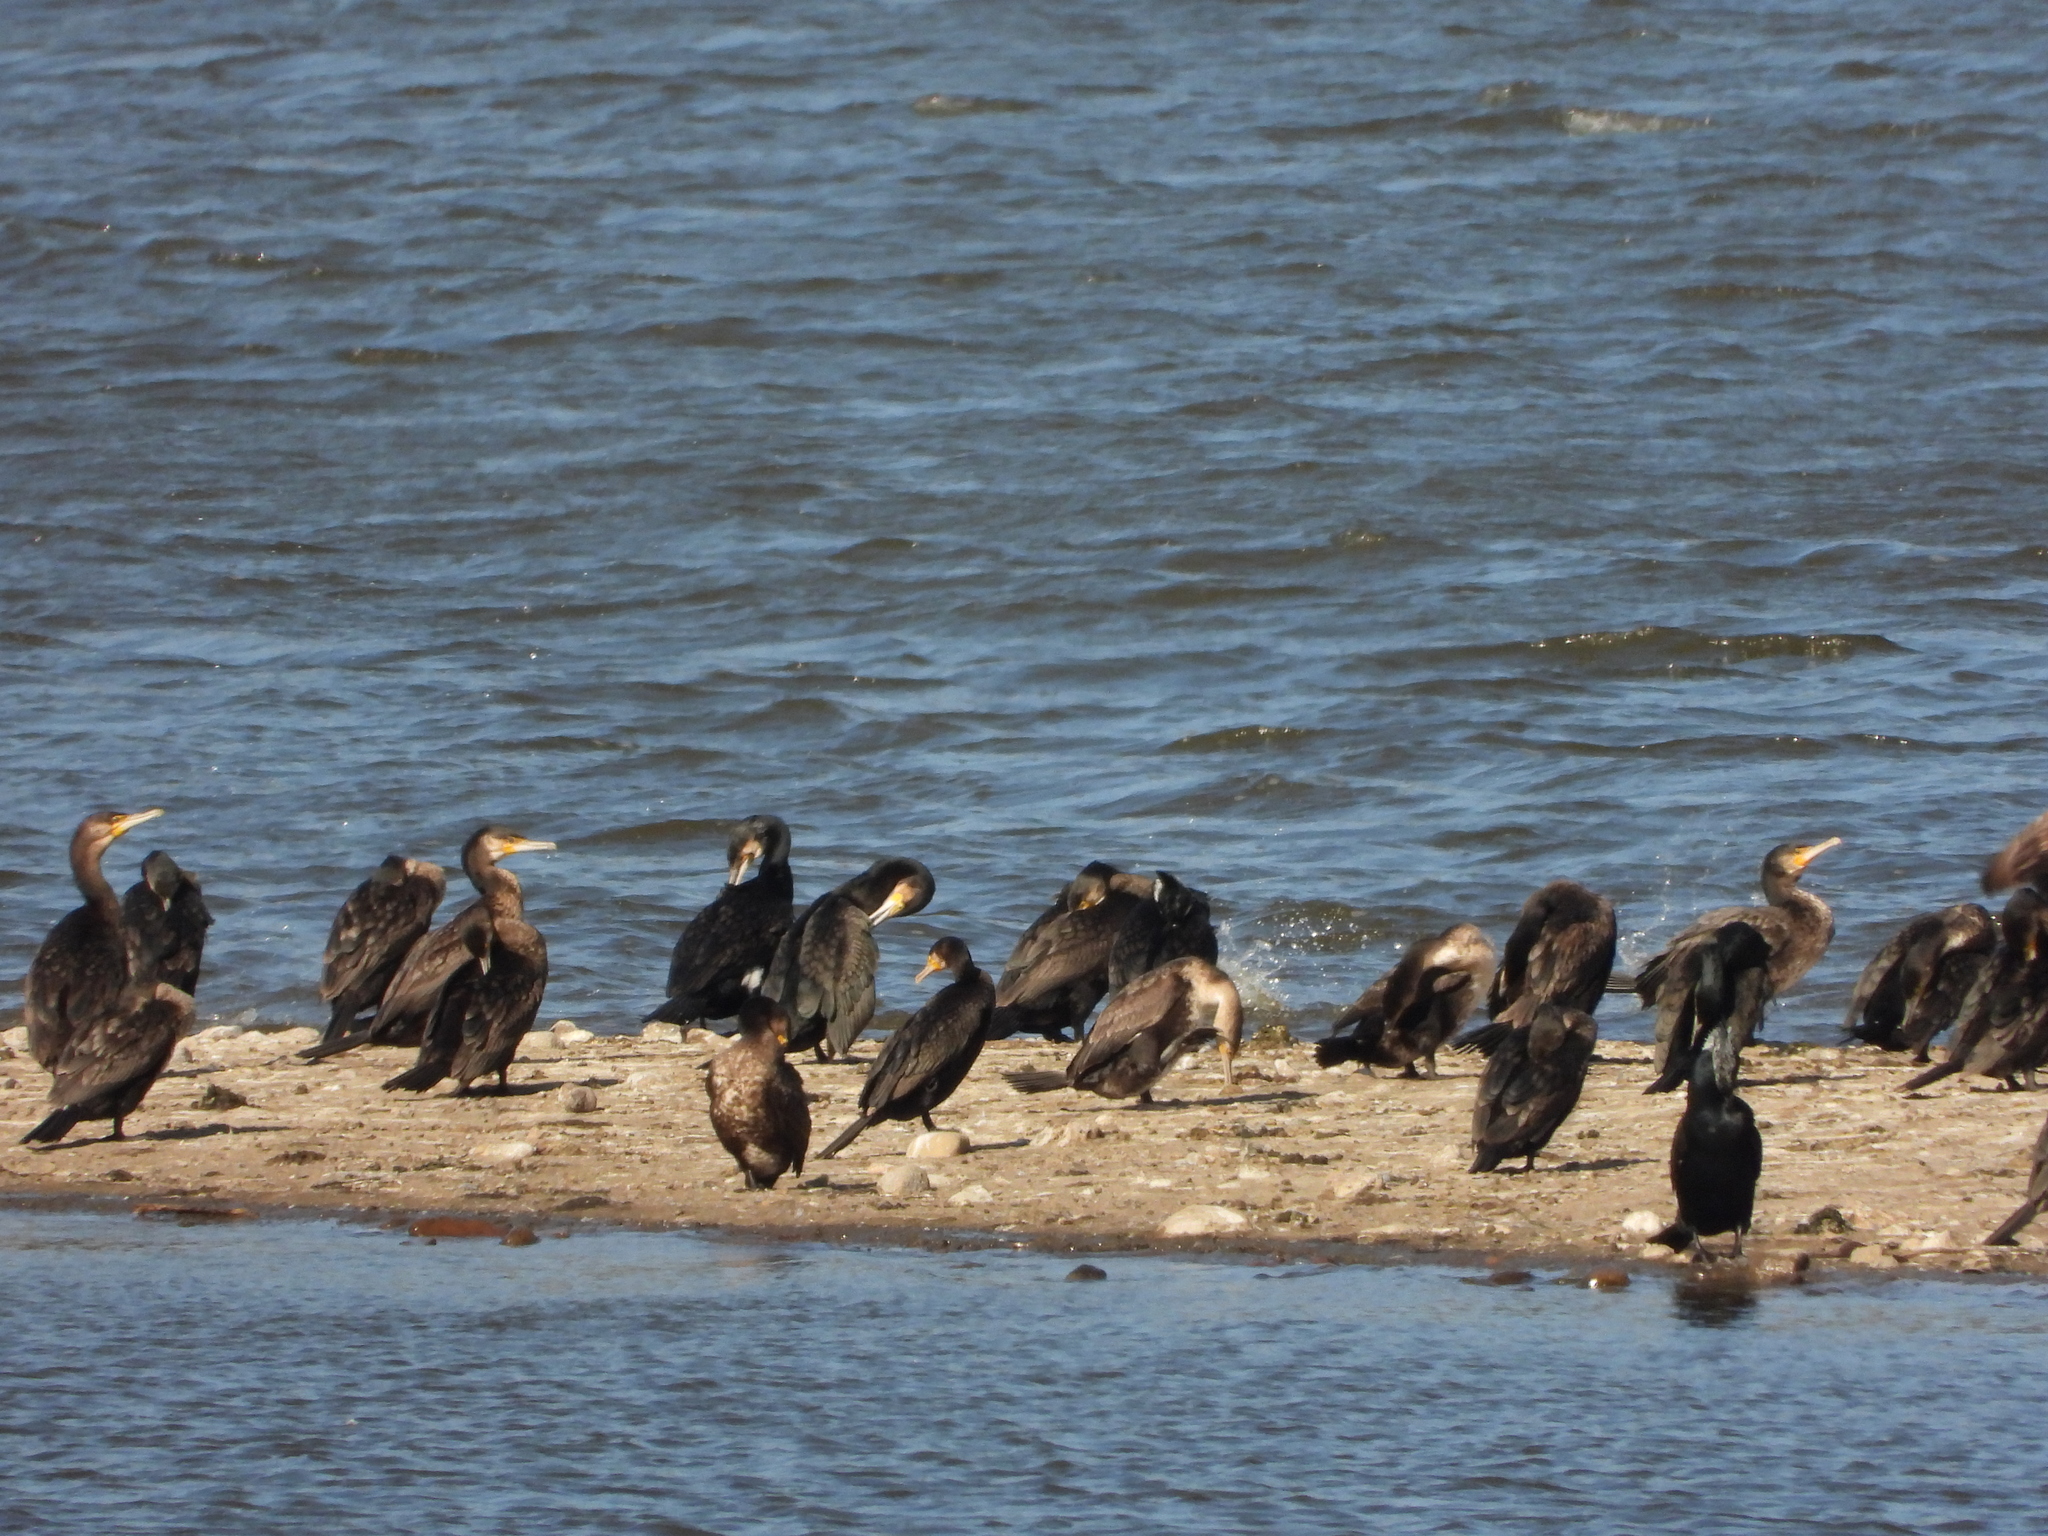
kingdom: Animalia
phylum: Chordata
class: Aves
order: Suliformes
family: Phalacrocoracidae
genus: Phalacrocorax
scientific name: Phalacrocorax carbo
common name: Great cormorant
